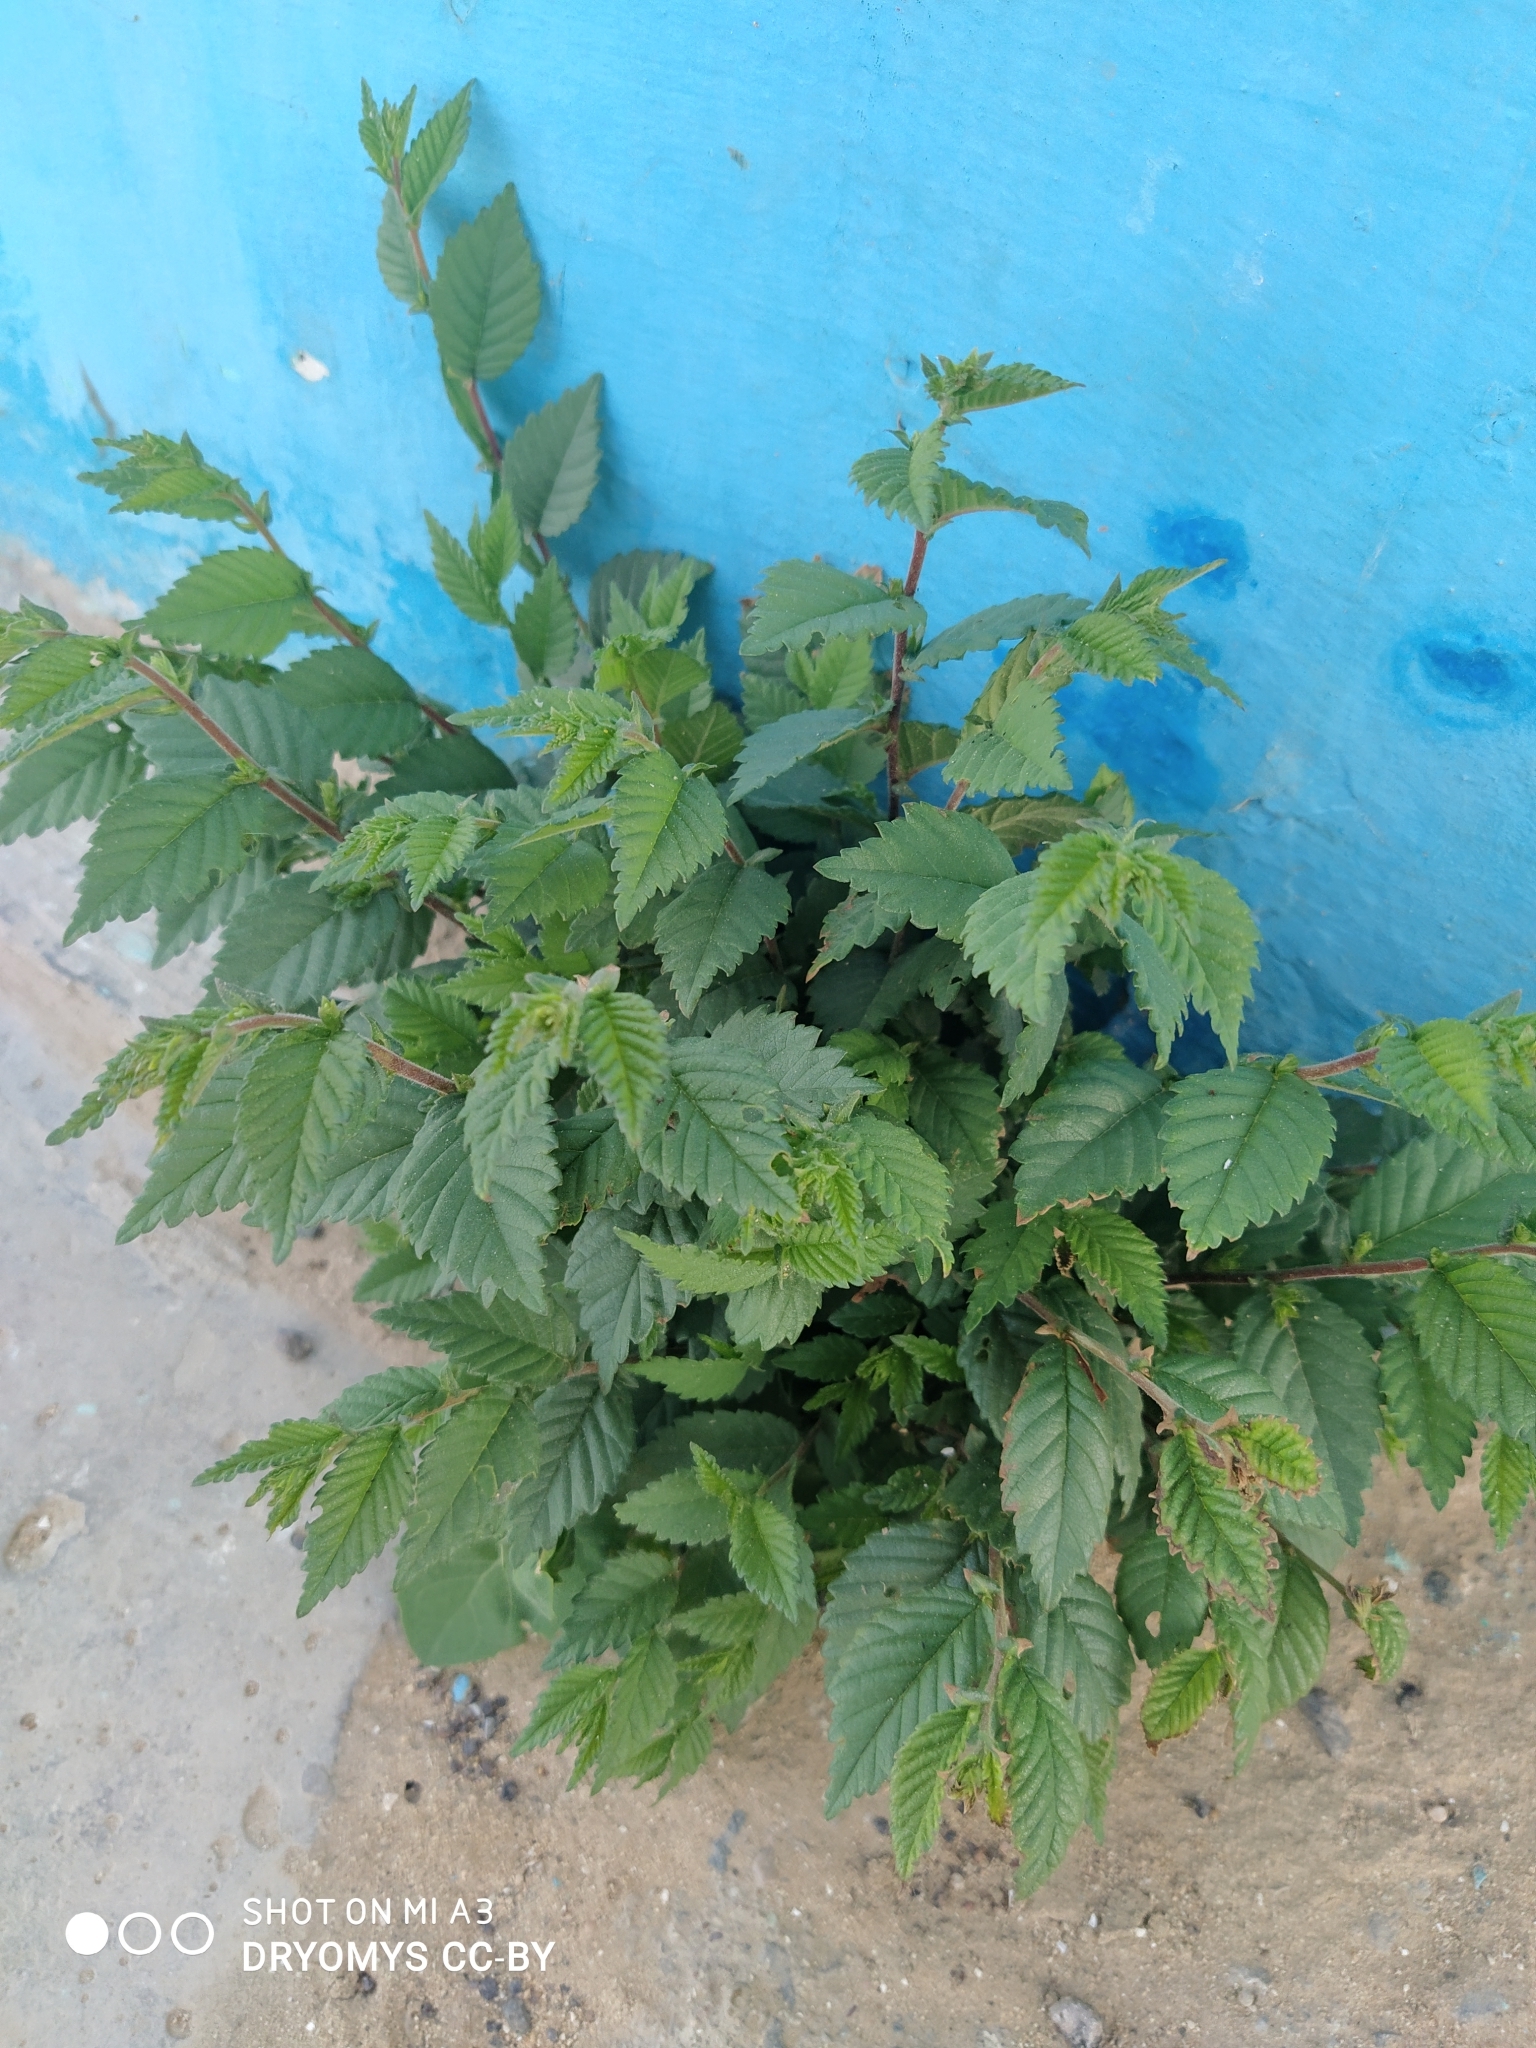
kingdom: Plantae
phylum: Tracheophyta
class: Magnoliopsida
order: Rosales
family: Ulmaceae
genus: Ulmus
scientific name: Ulmus pumila
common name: Siberian elm
